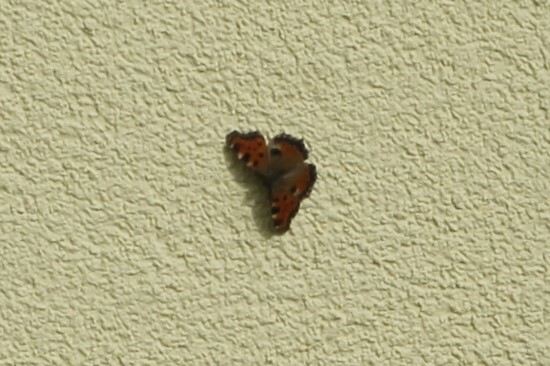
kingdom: Animalia
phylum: Arthropoda
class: Insecta
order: Lepidoptera
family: Nymphalidae
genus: Nymphalis
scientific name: Nymphalis polychloros
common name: Large tortoiseshell
